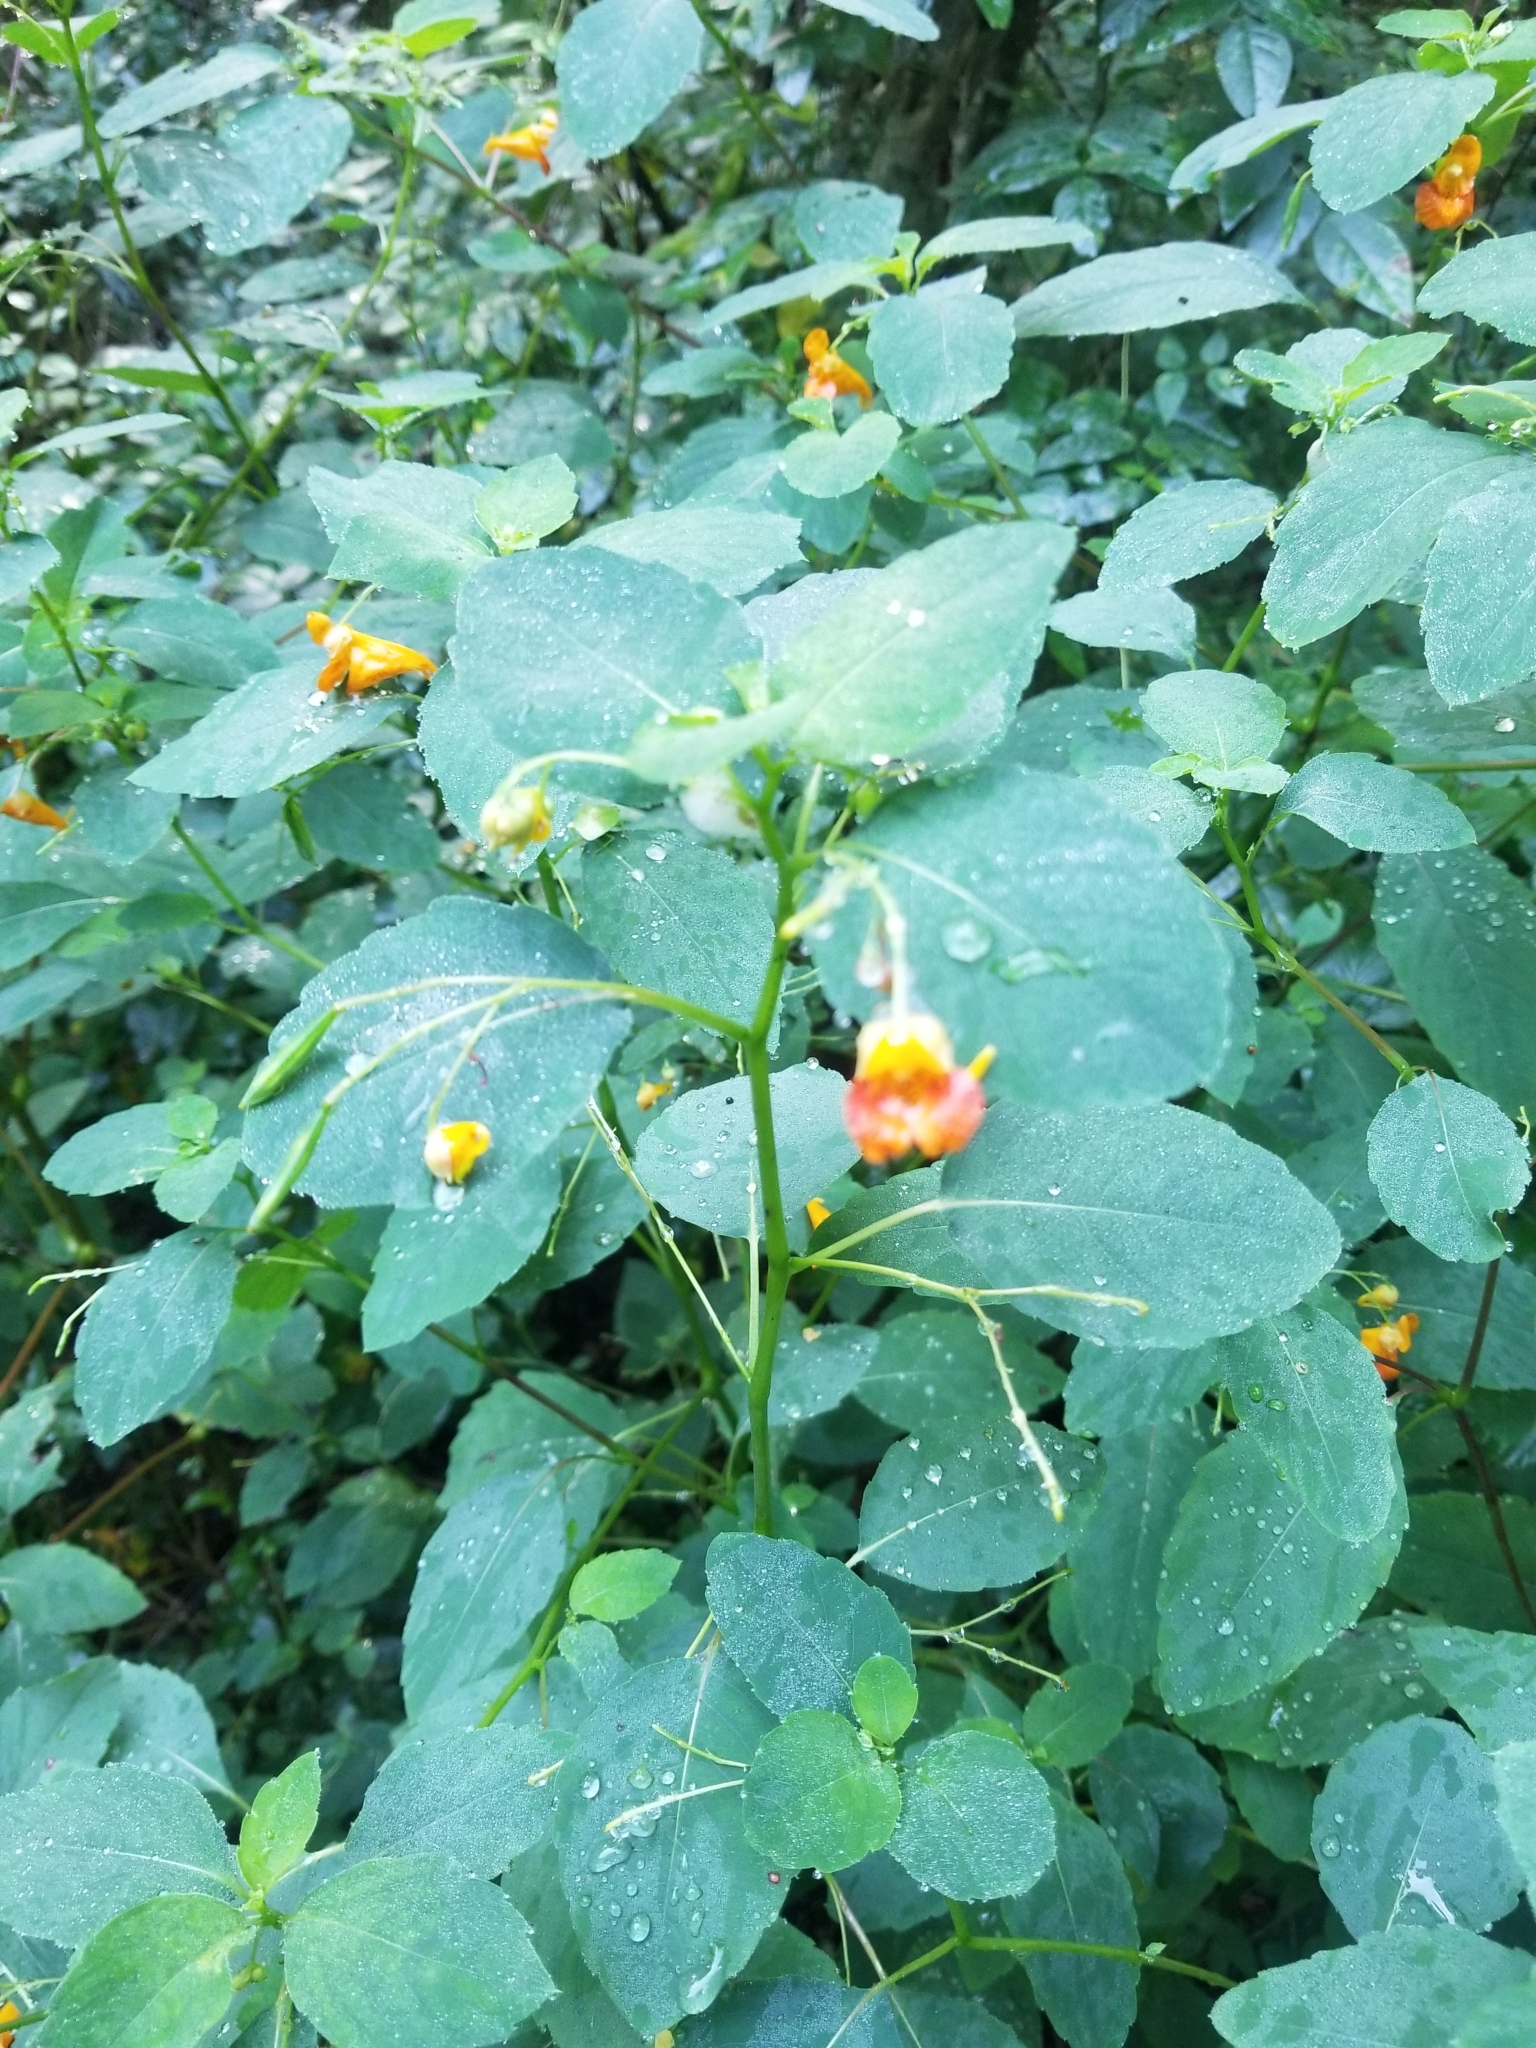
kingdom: Plantae
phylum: Tracheophyta
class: Magnoliopsida
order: Ericales
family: Balsaminaceae
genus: Impatiens
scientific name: Impatiens capensis
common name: Orange balsam
